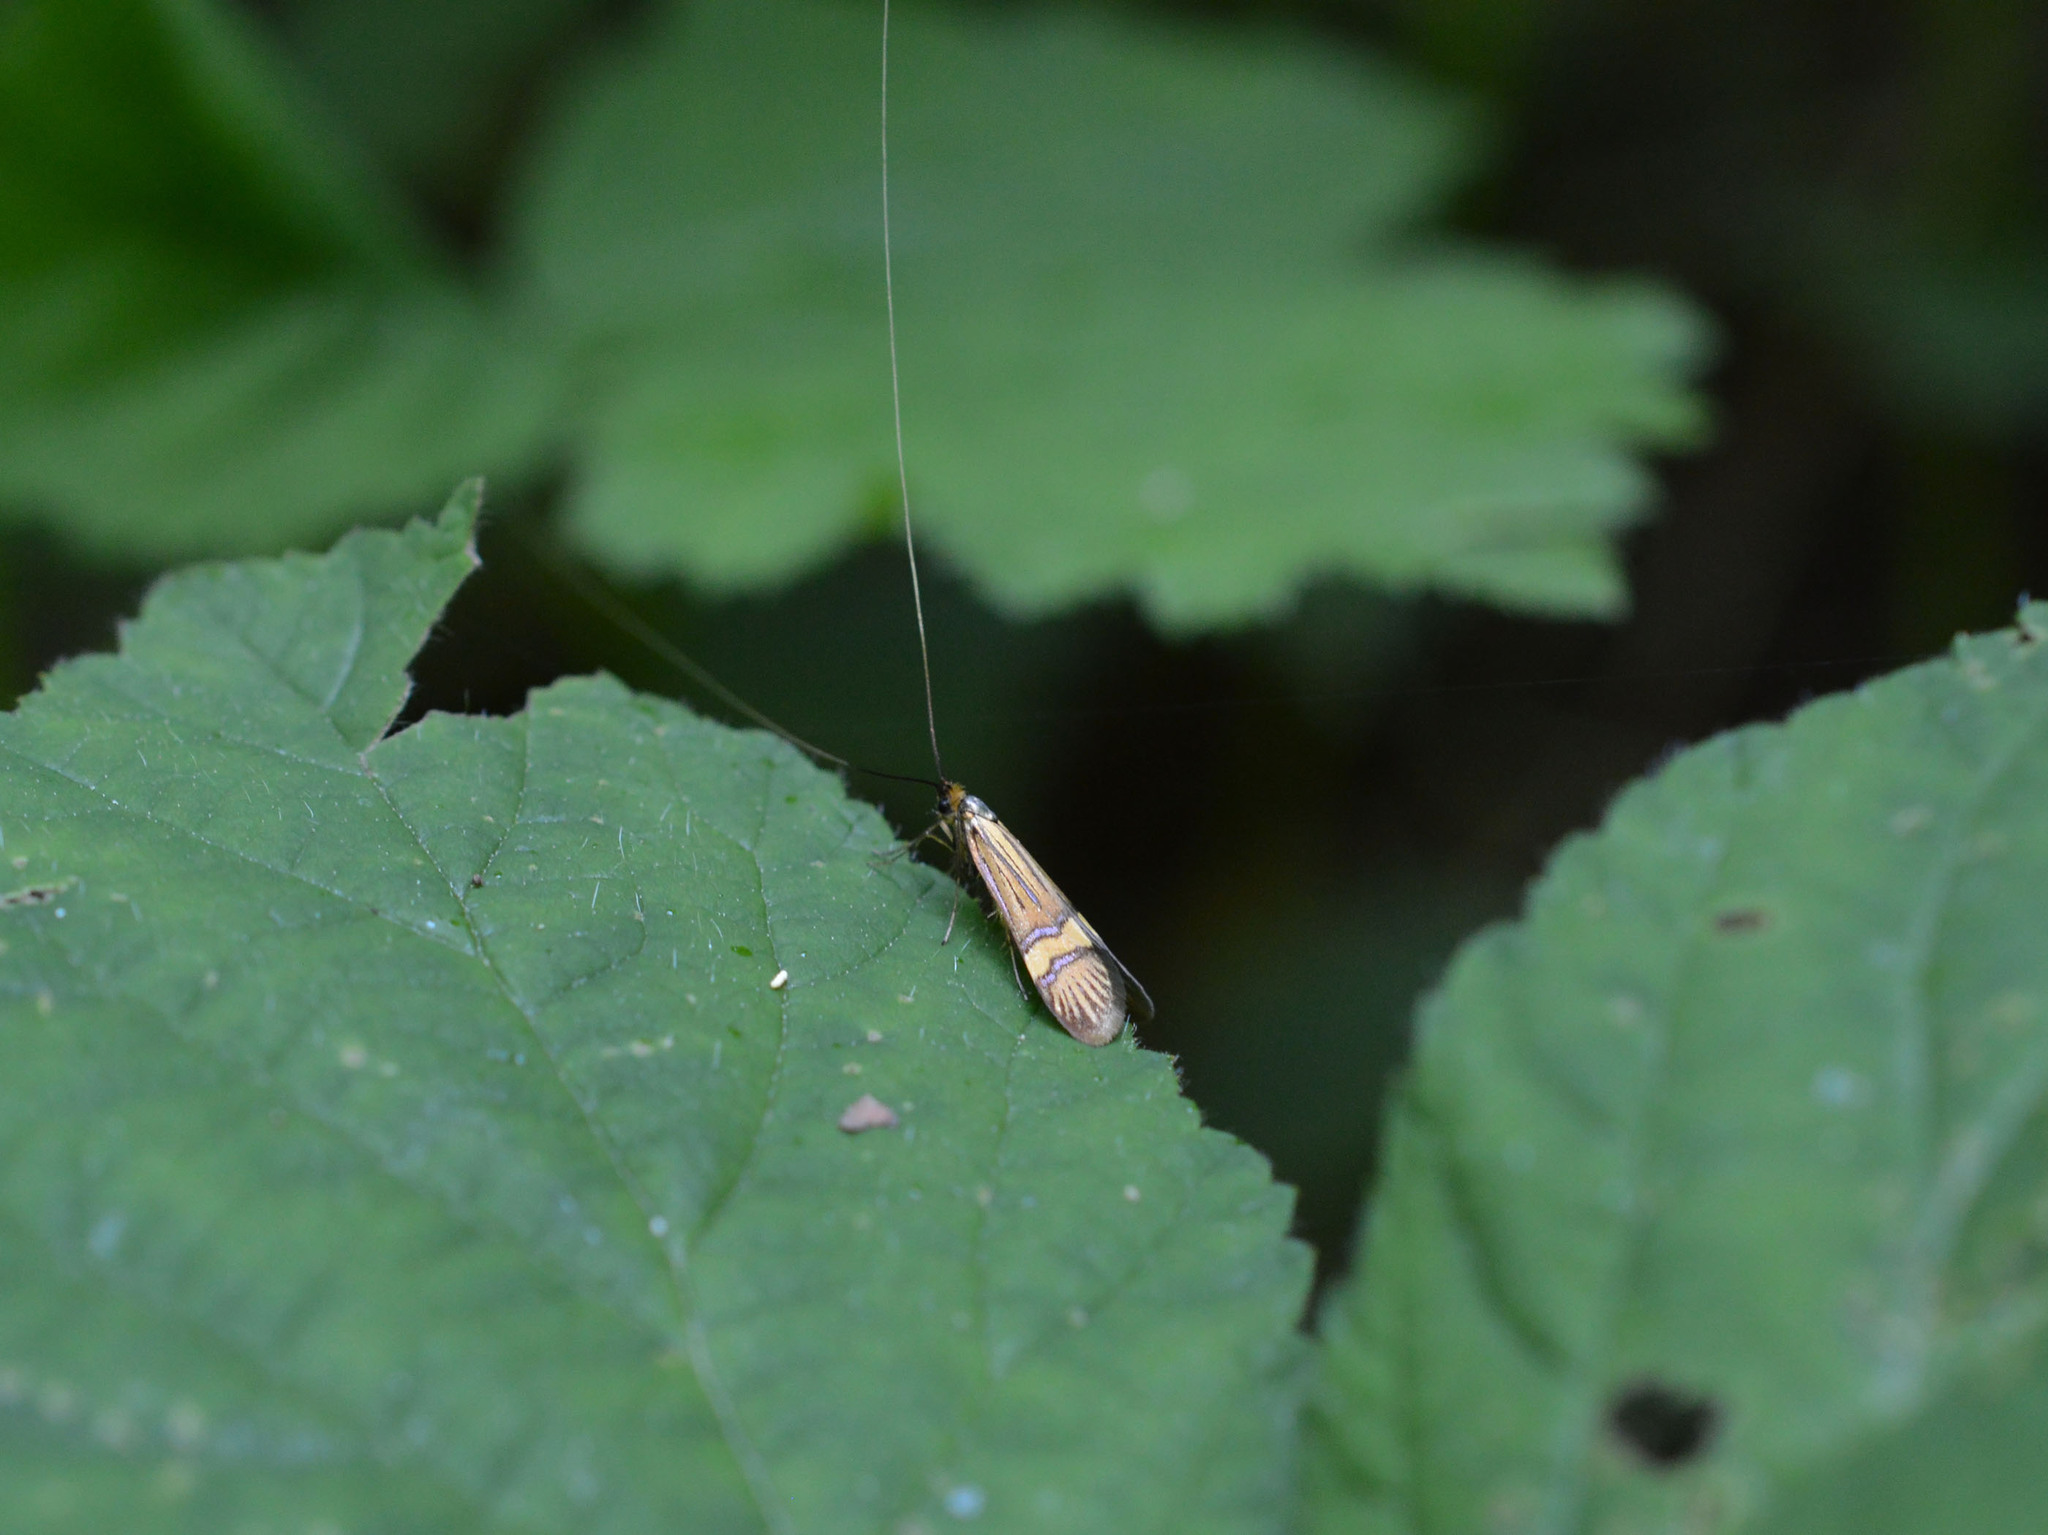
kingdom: Animalia
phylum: Arthropoda
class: Insecta
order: Lepidoptera
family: Adelidae
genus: Nemophora
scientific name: Nemophora
